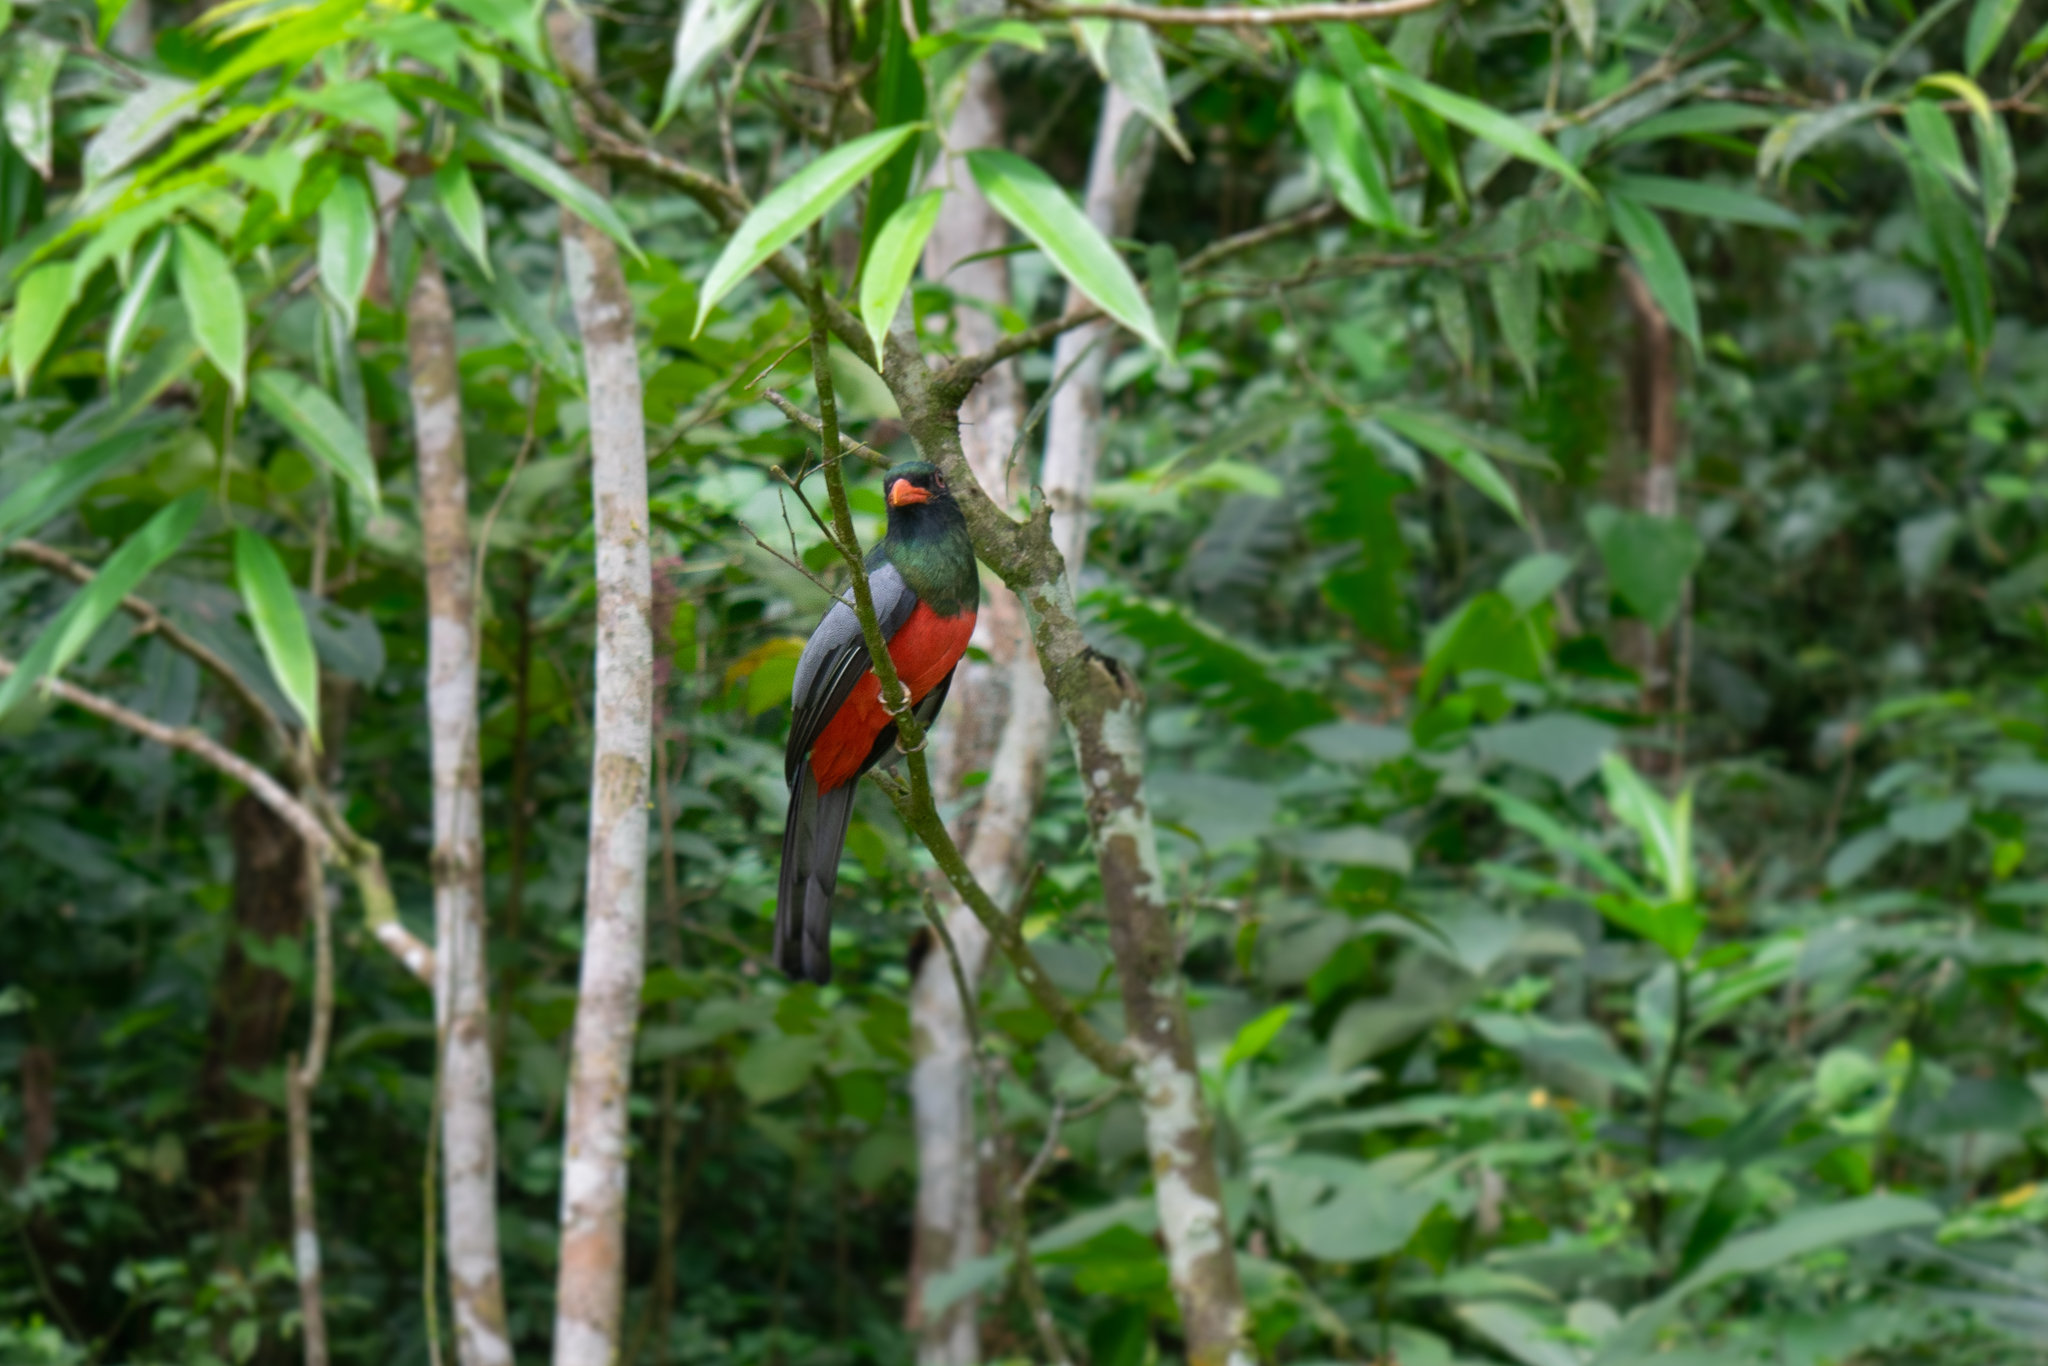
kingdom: Animalia
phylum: Chordata
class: Aves
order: Trogoniformes
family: Trogonidae
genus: Trogon
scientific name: Trogon massena
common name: Slaty-tailed trogon
